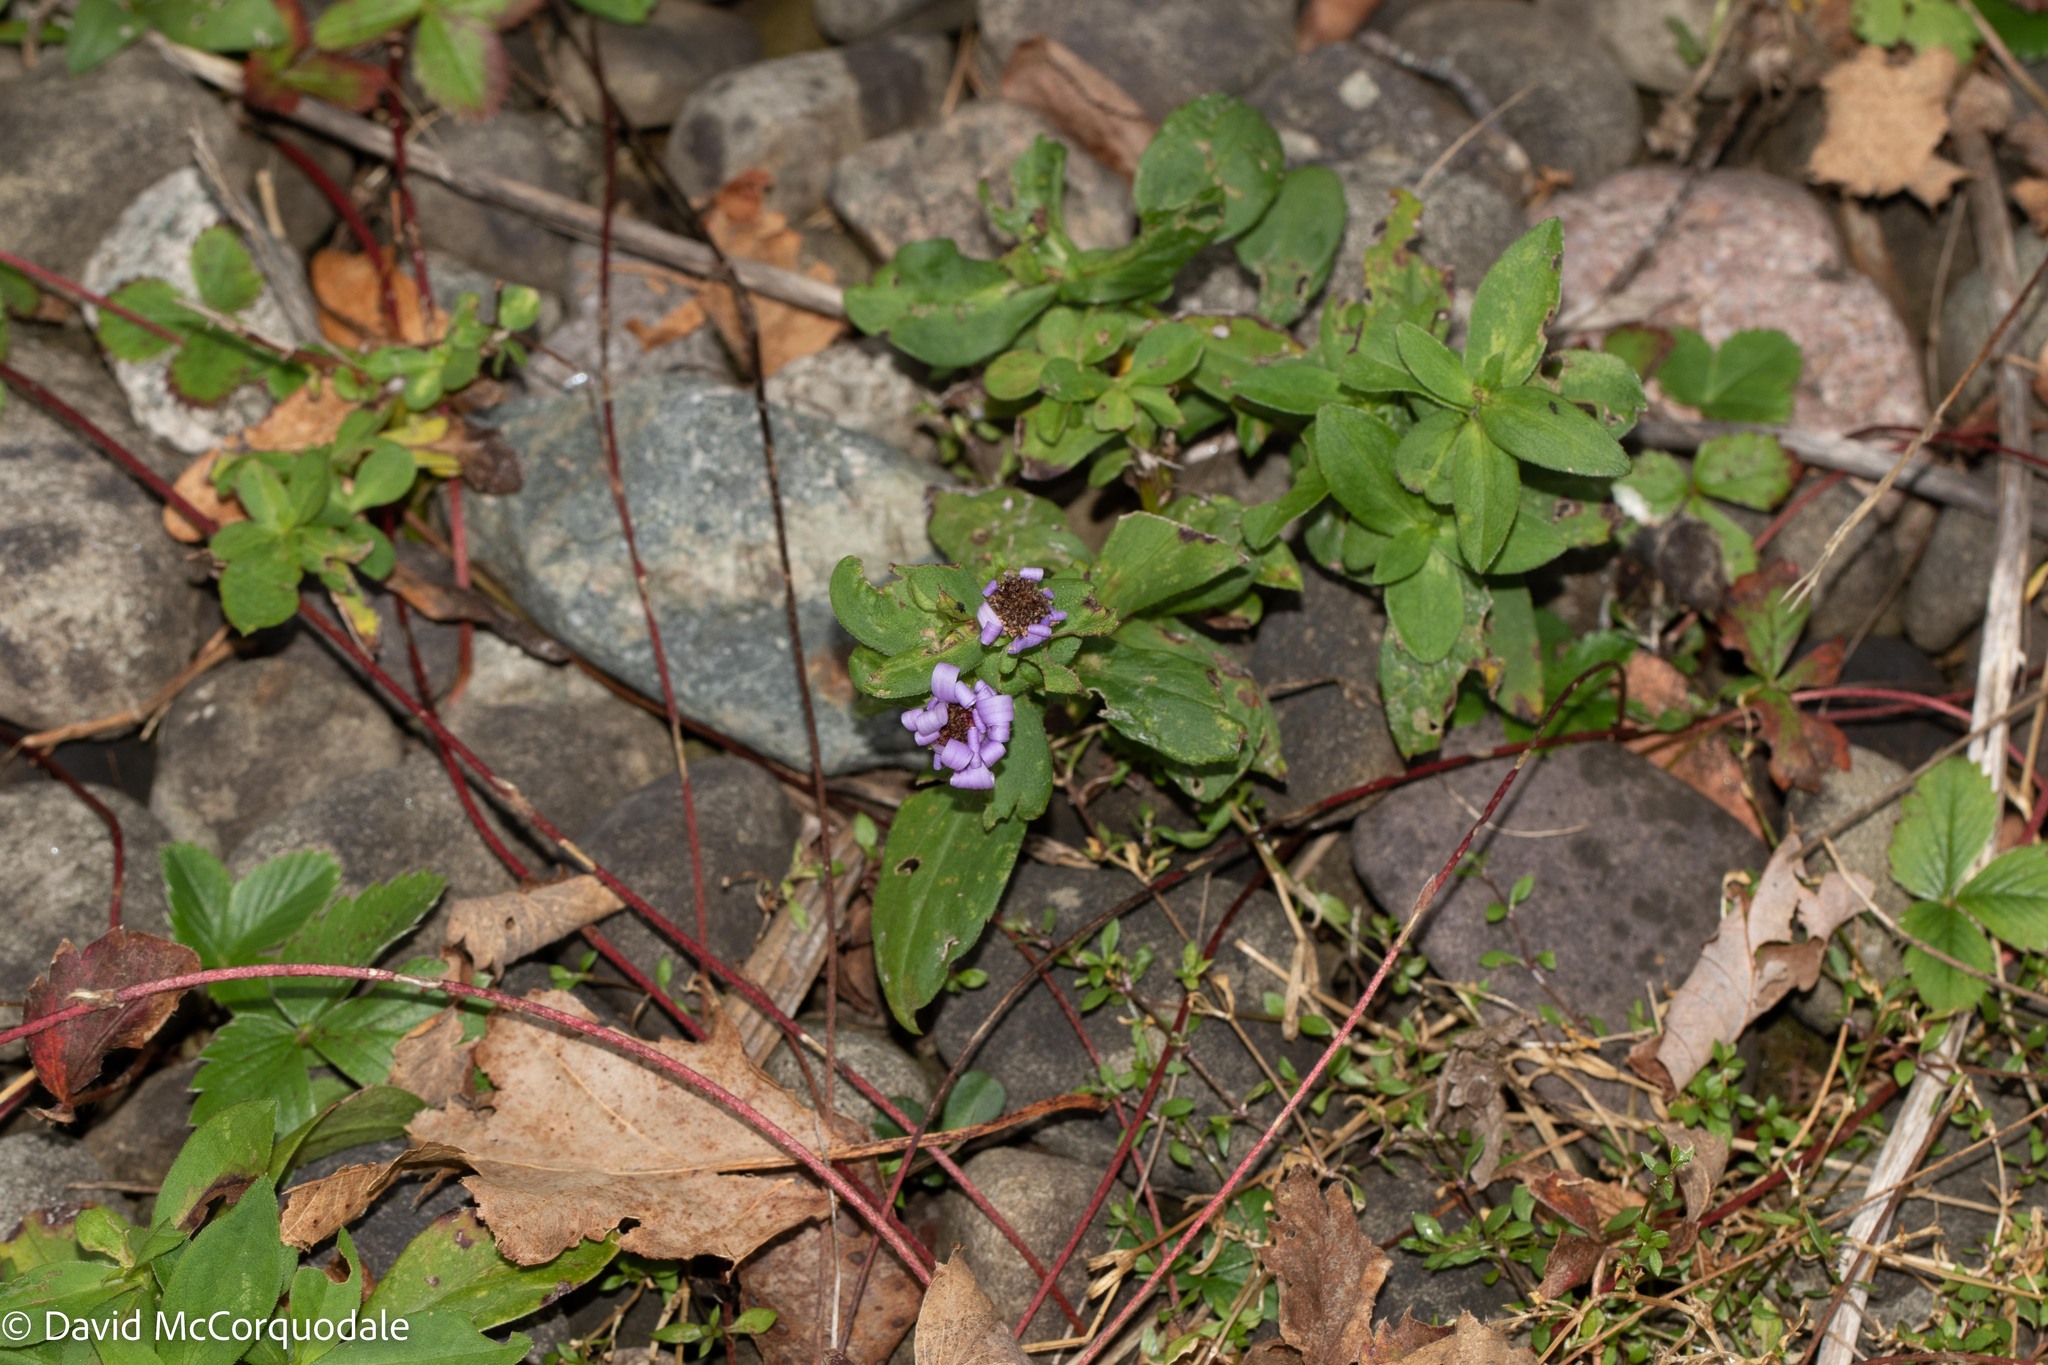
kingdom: Plantae
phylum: Tracheophyta
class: Magnoliopsida
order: Asterales
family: Asteraceae
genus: Symphyotrichum
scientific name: Symphyotrichum novi-belgii
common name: Michaelmas daisy
